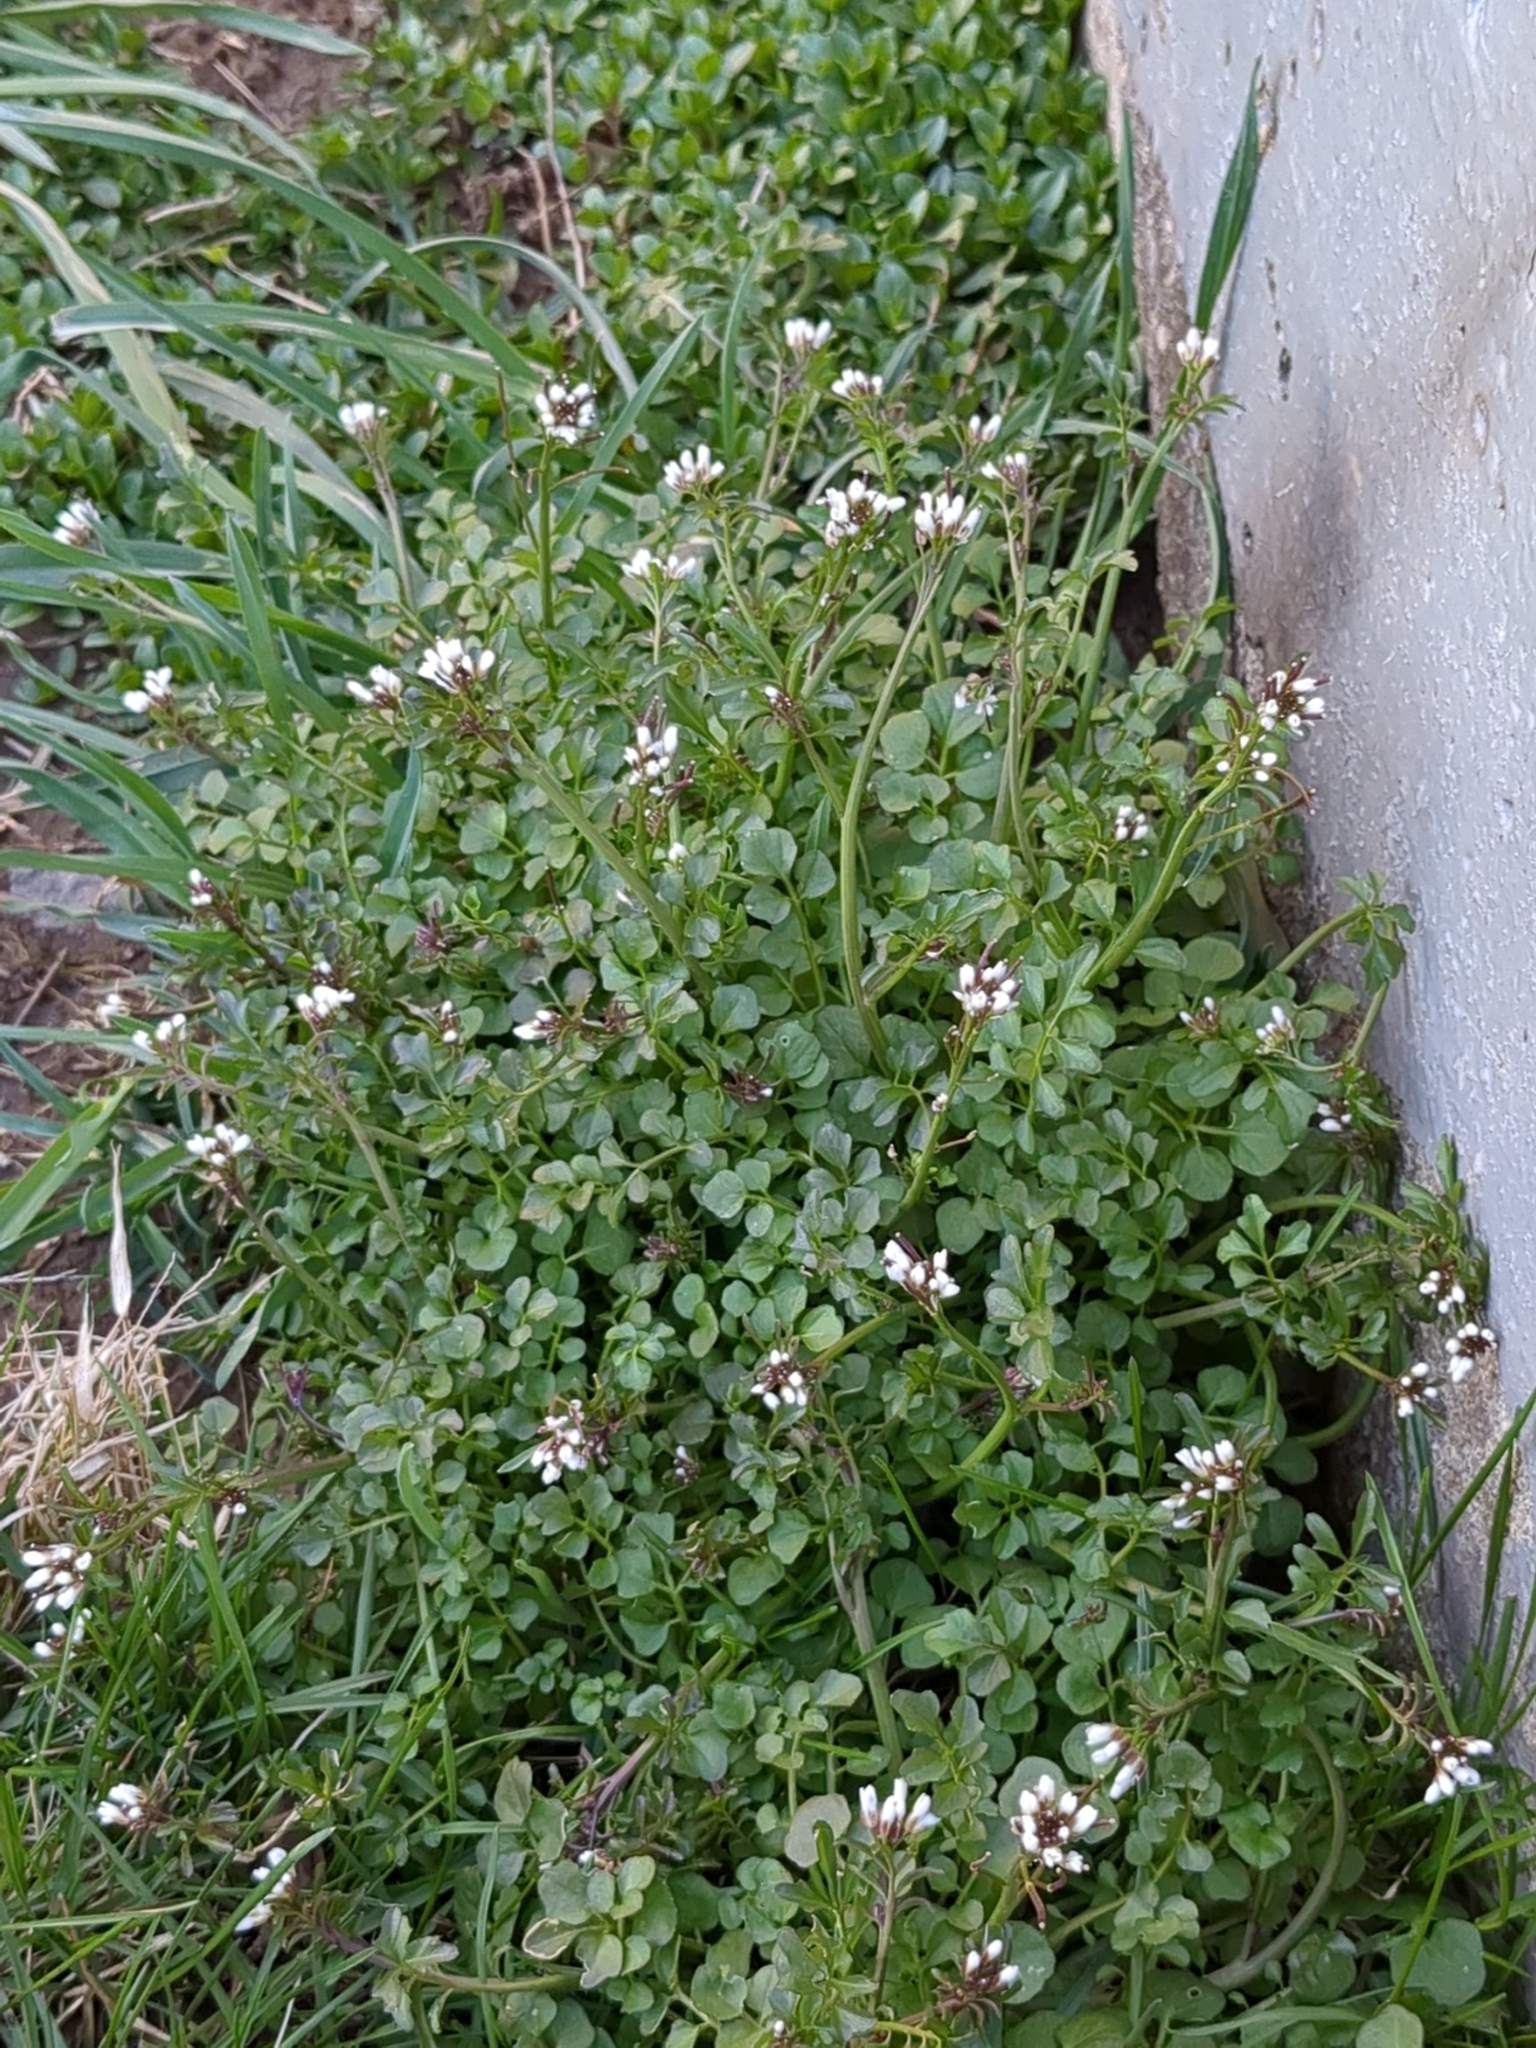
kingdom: Plantae
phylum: Tracheophyta
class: Magnoliopsida
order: Brassicales
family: Brassicaceae
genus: Cardamine
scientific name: Cardamine hirsuta
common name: Hairy bittercress
